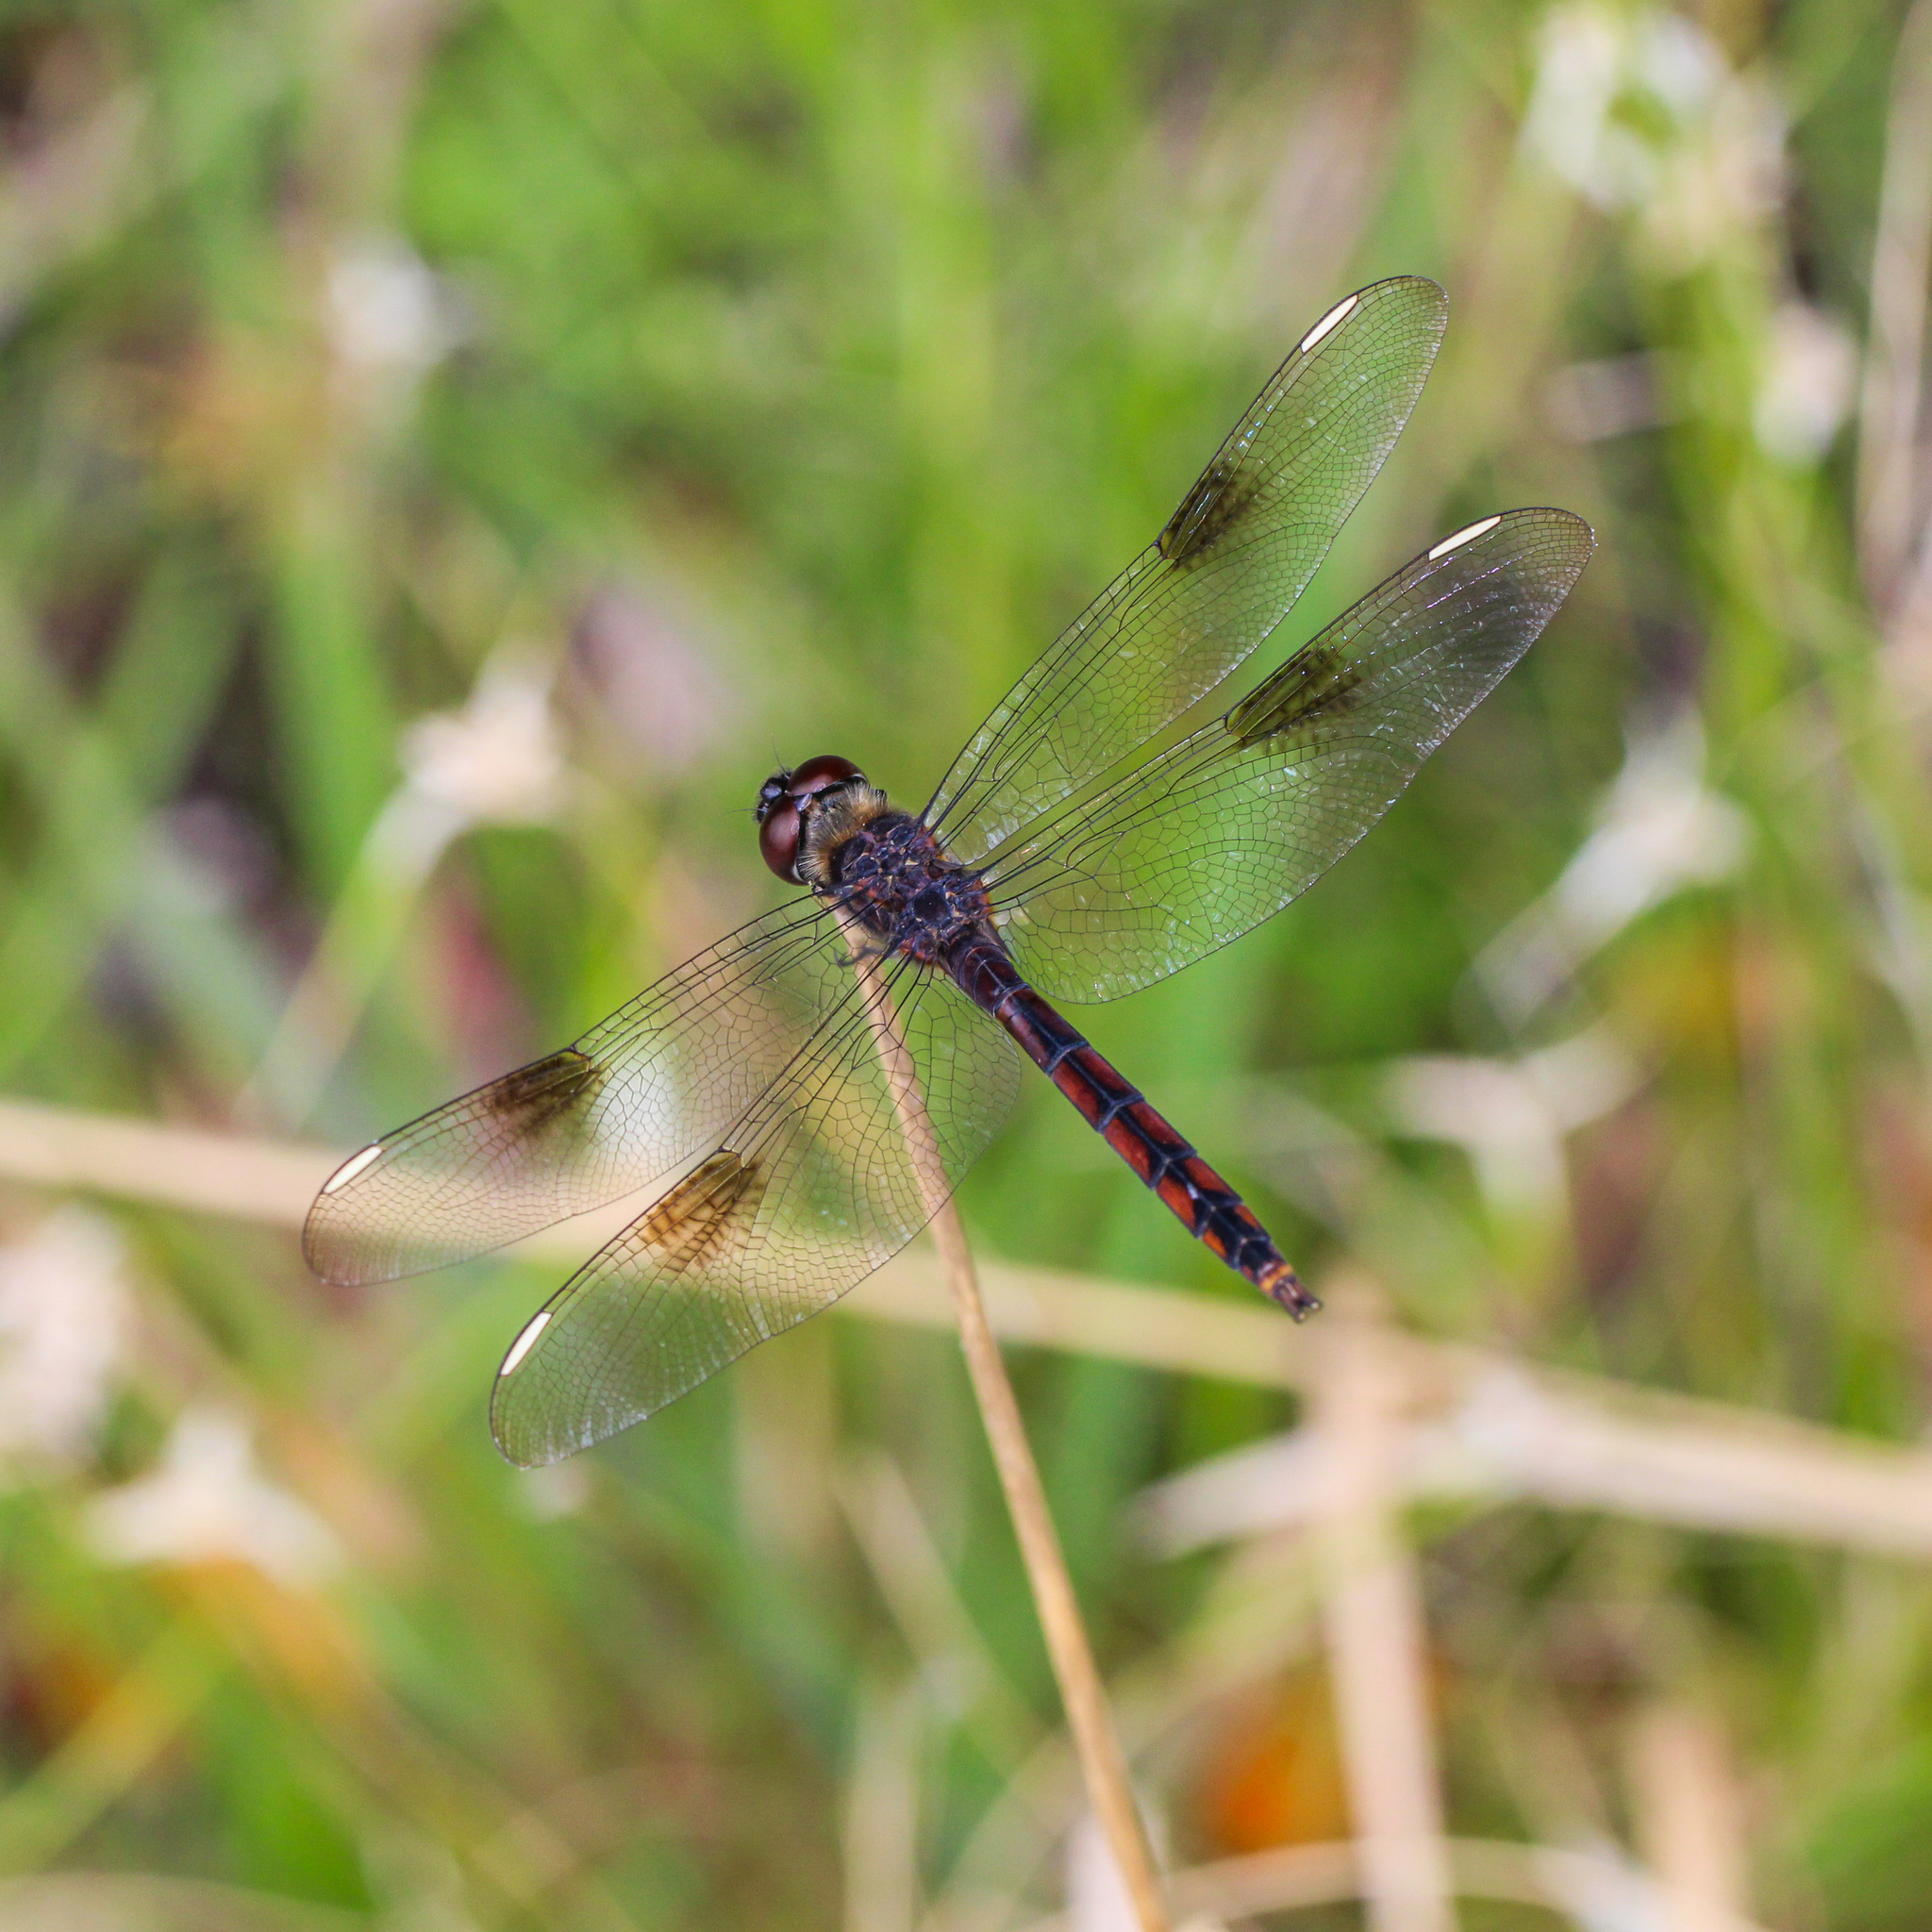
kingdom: Animalia
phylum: Arthropoda
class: Insecta
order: Odonata
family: Libellulidae
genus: Brachymesia
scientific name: Brachymesia gravida
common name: Four-spotted pennant
